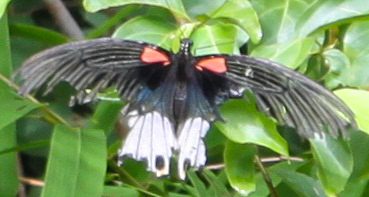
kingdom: Animalia
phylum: Arthropoda
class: Insecta
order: Lepidoptera
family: Papilionidae
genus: Papilio
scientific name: Papilio memnon
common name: Great mormon
